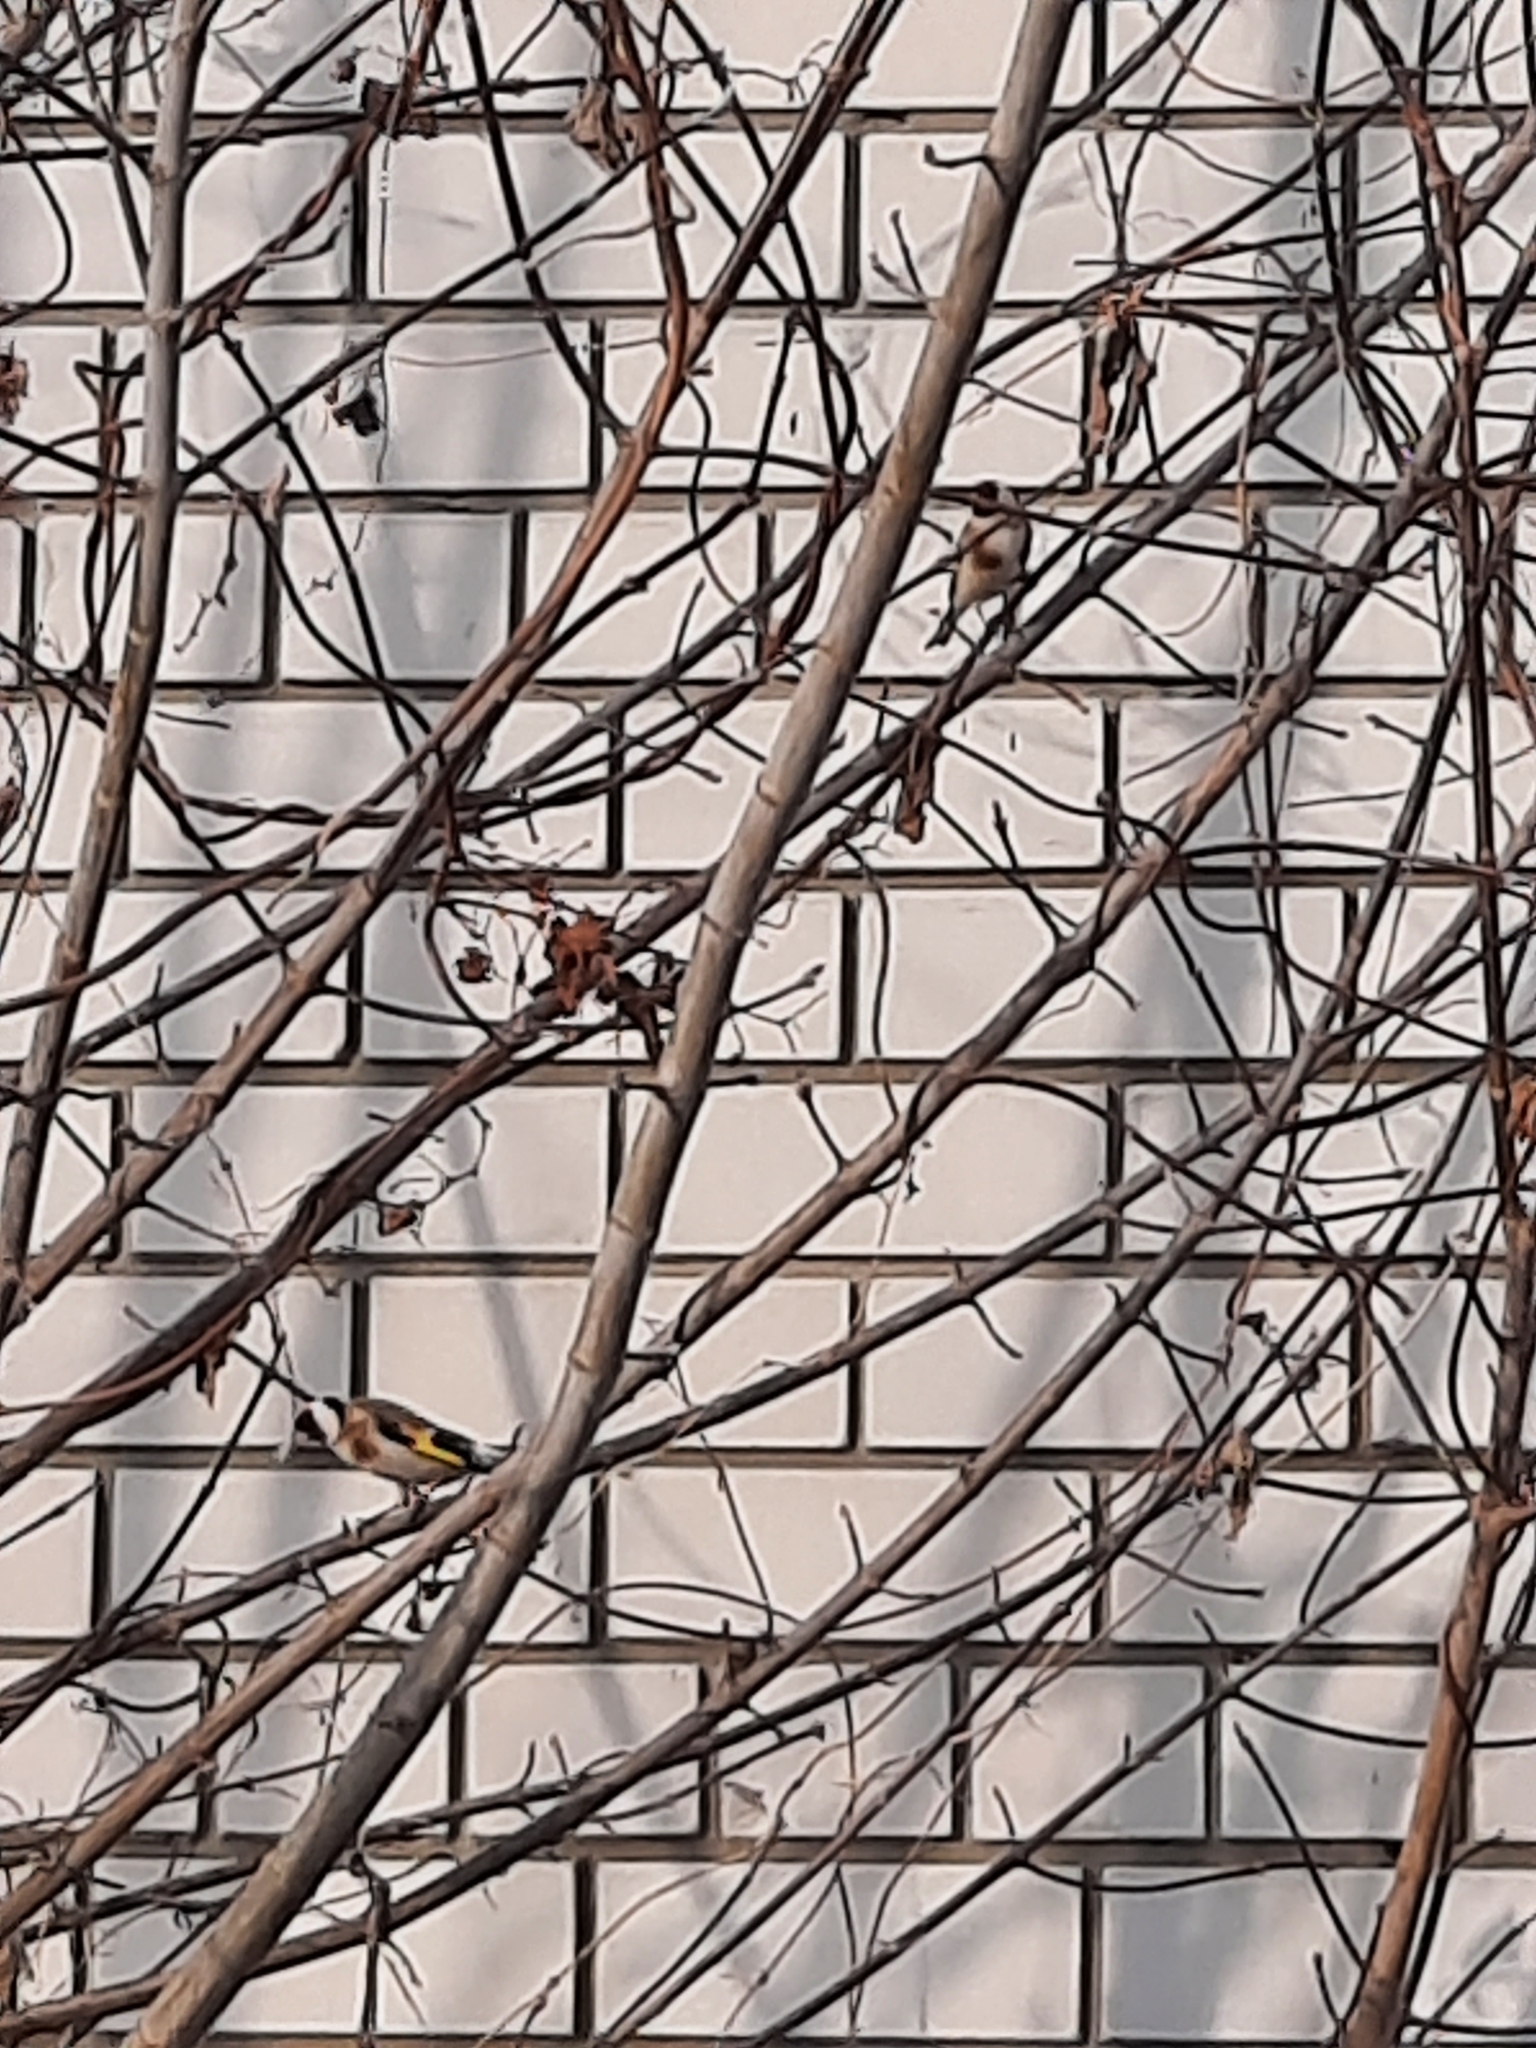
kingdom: Animalia
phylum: Chordata
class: Aves
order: Passeriformes
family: Fringillidae
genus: Carduelis
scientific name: Carduelis carduelis
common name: European goldfinch
